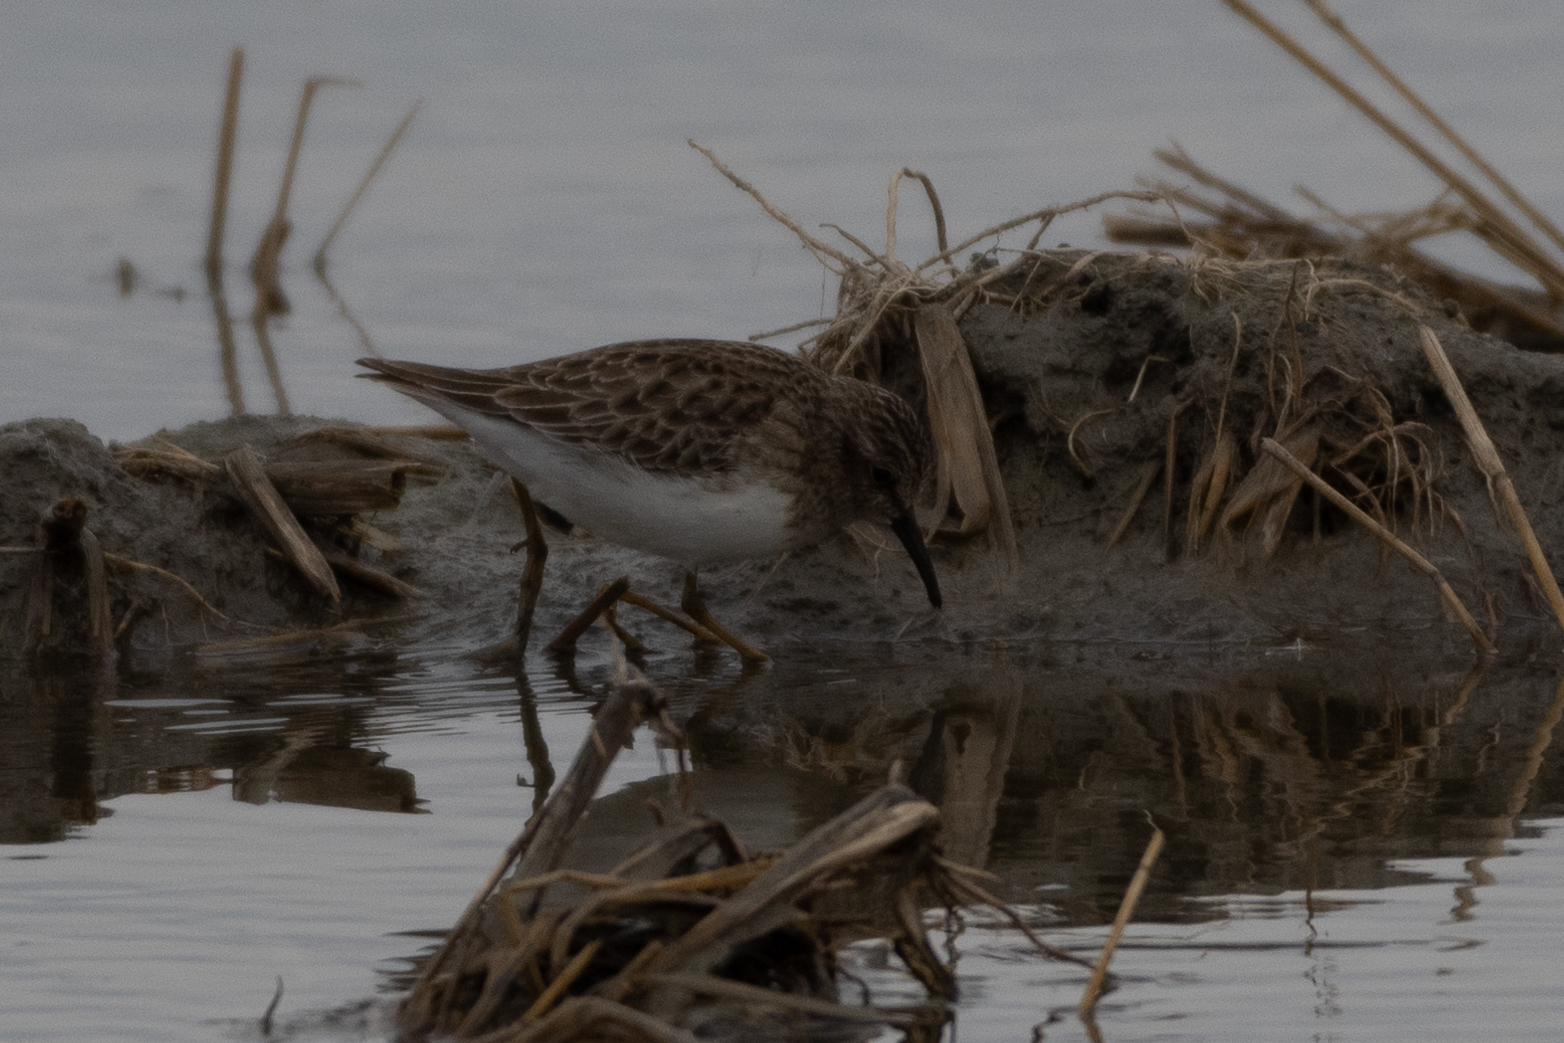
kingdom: Animalia
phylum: Chordata
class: Aves
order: Charadriiformes
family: Scolopacidae
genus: Calidris
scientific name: Calidris minutilla
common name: Least sandpiper
